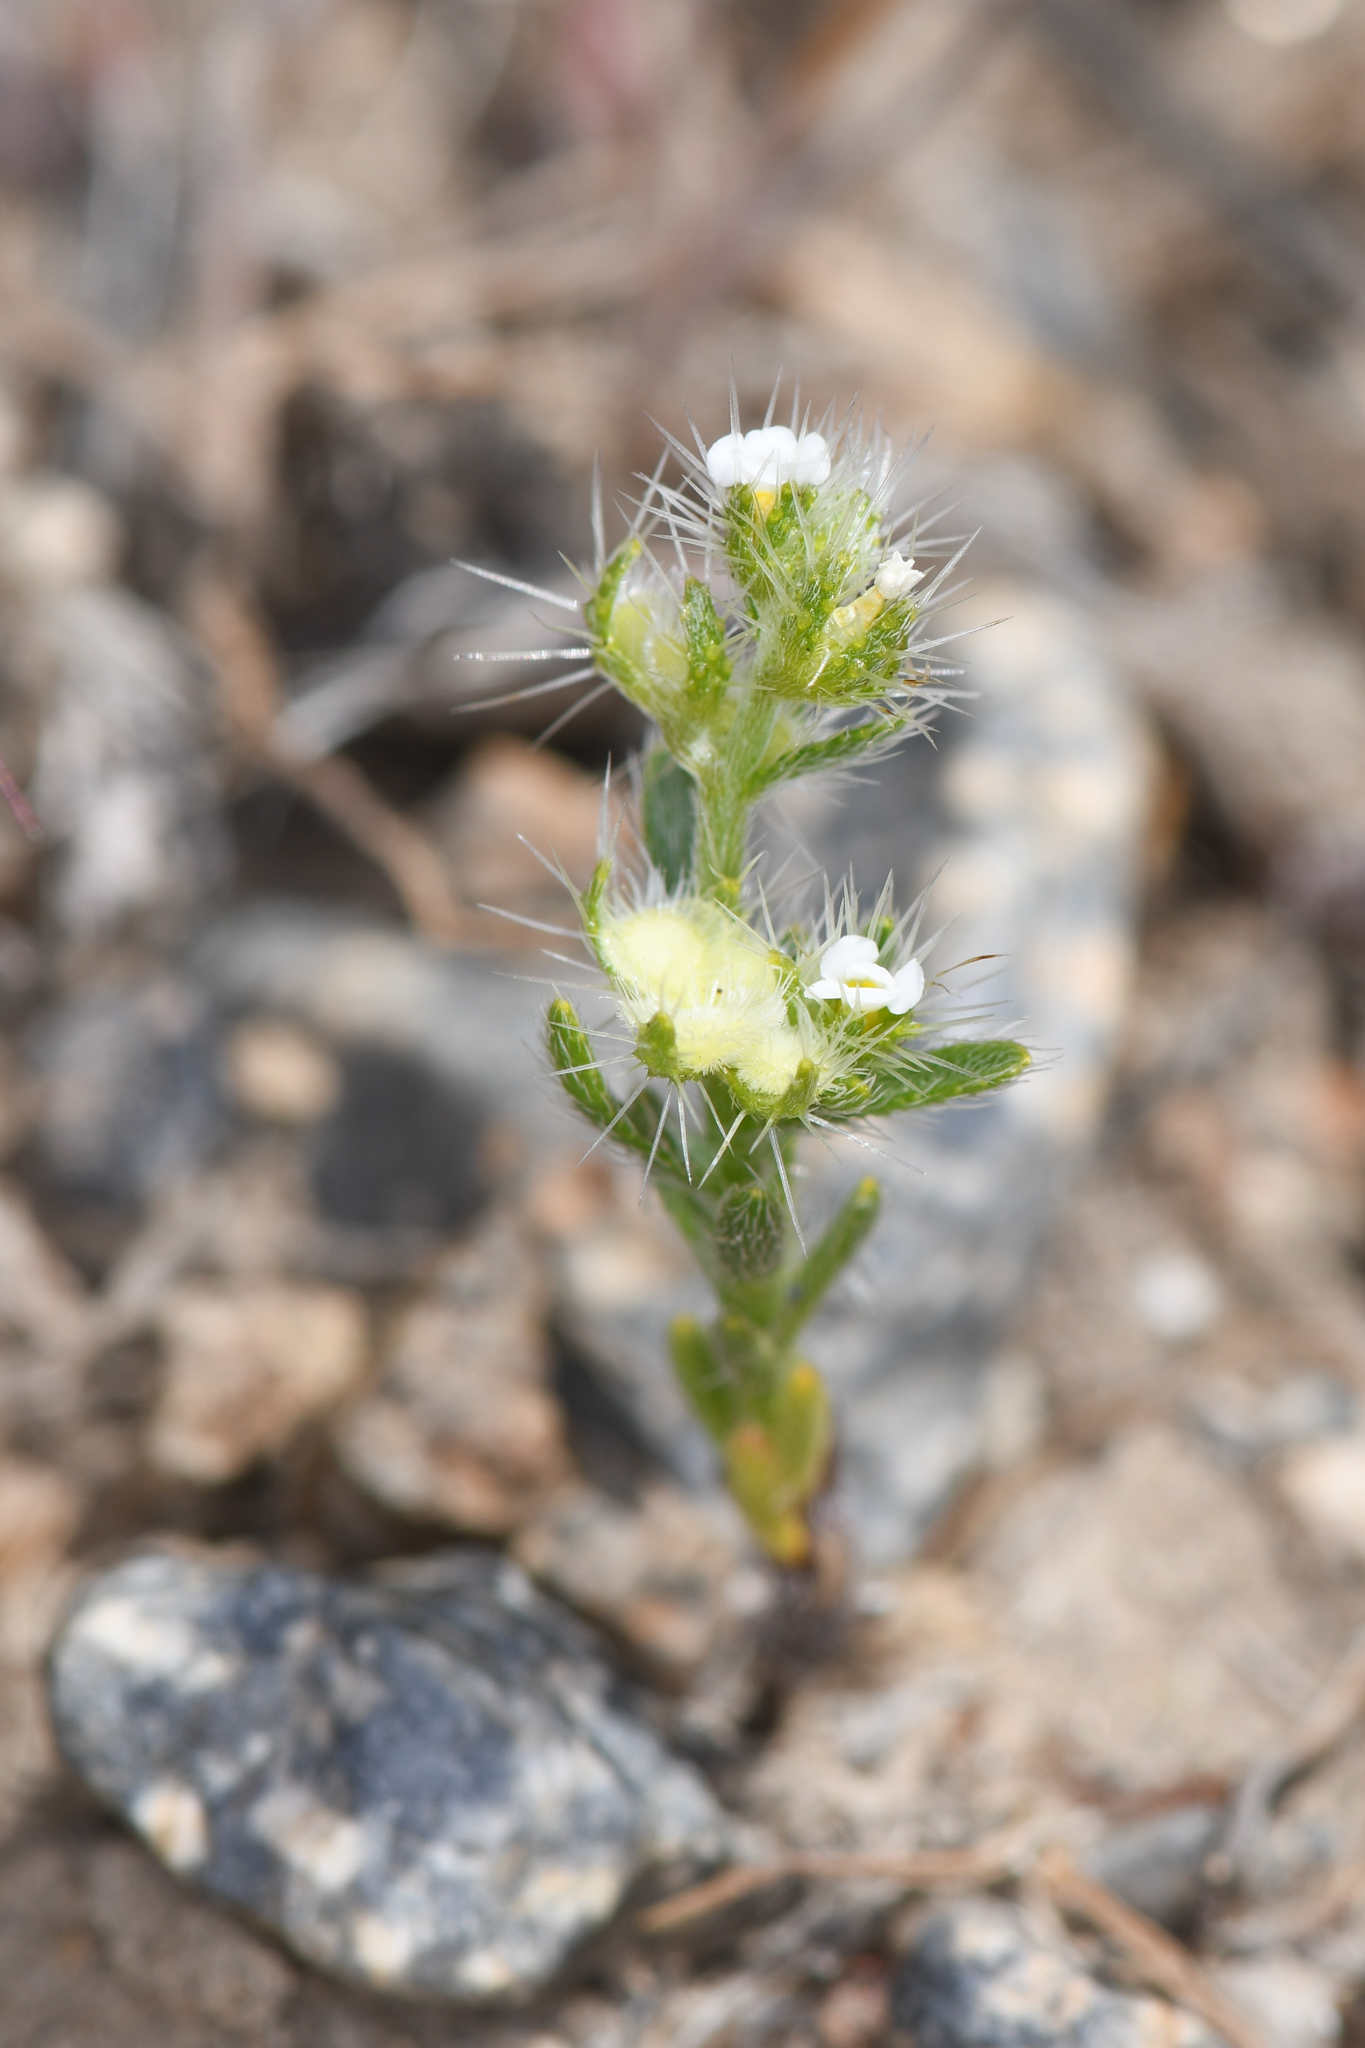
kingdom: Plantae
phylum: Tracheophyta
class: Magnoliopsida
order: Boraginales
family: Boraginaceae
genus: Pectocarya
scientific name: Pectocarya setosa
